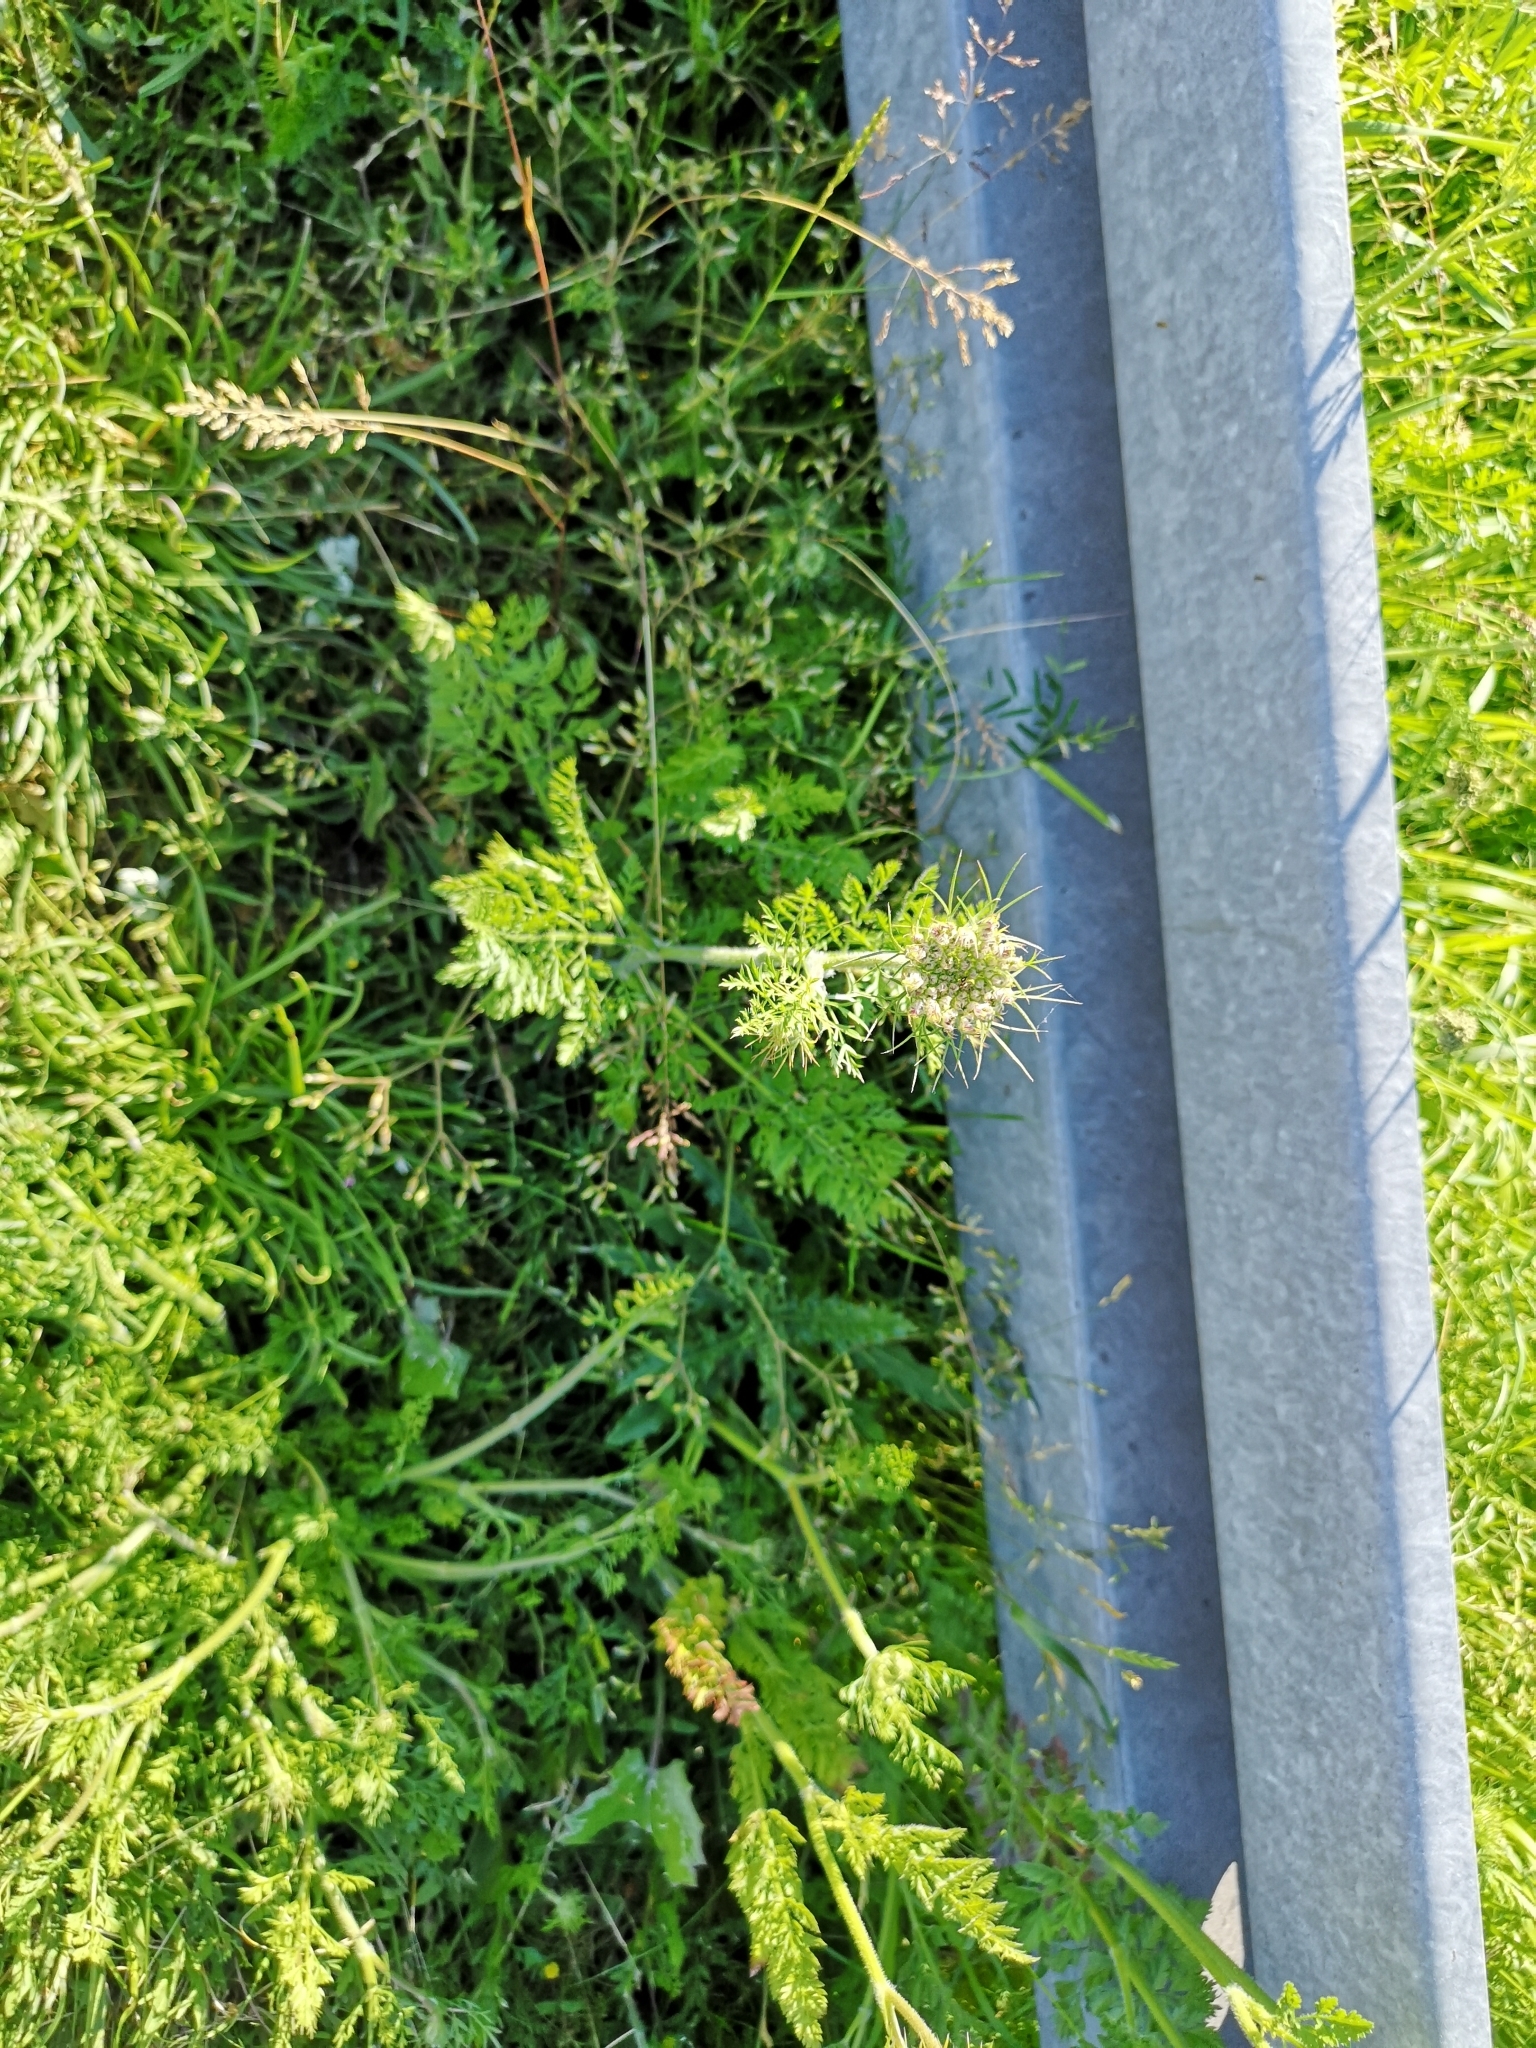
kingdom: Plantae
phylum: Tracheophyta
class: Magnoliopsida
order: Apiales
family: Apiaceae
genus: Daucus
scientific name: Daucus carota
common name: Wild carrot
